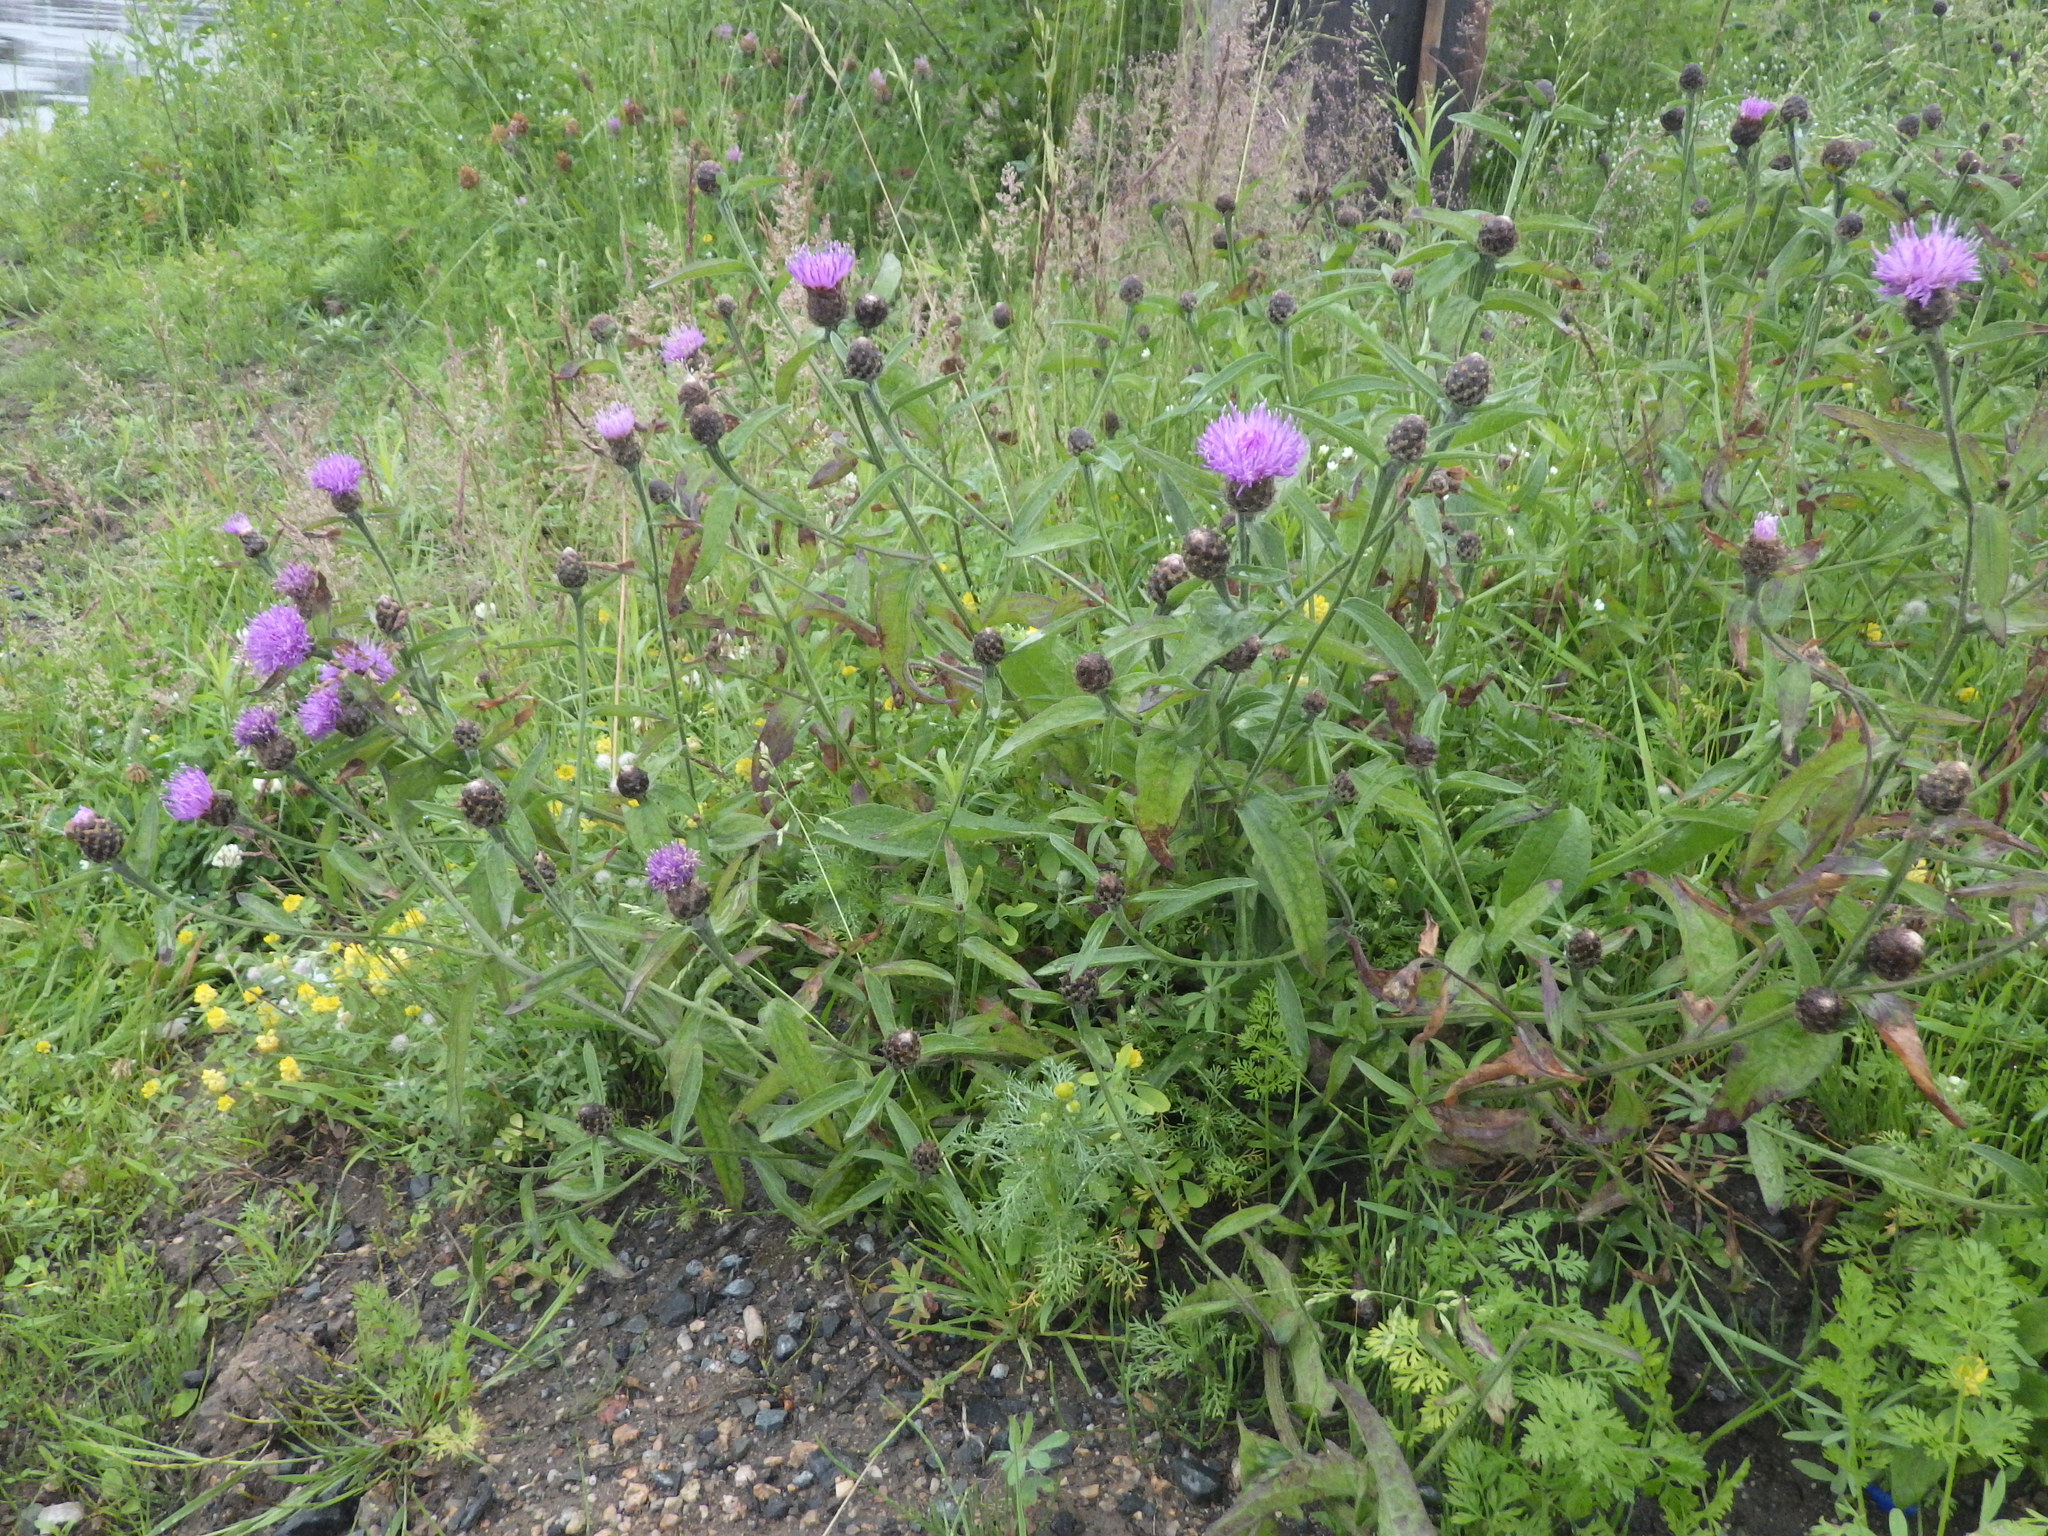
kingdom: Plantae
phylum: Tracheophyta
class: Magnoliopsida
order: Asterales
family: Asteraceae
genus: Centaurea
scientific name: Centaurea nigra
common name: Lesser knapweed
